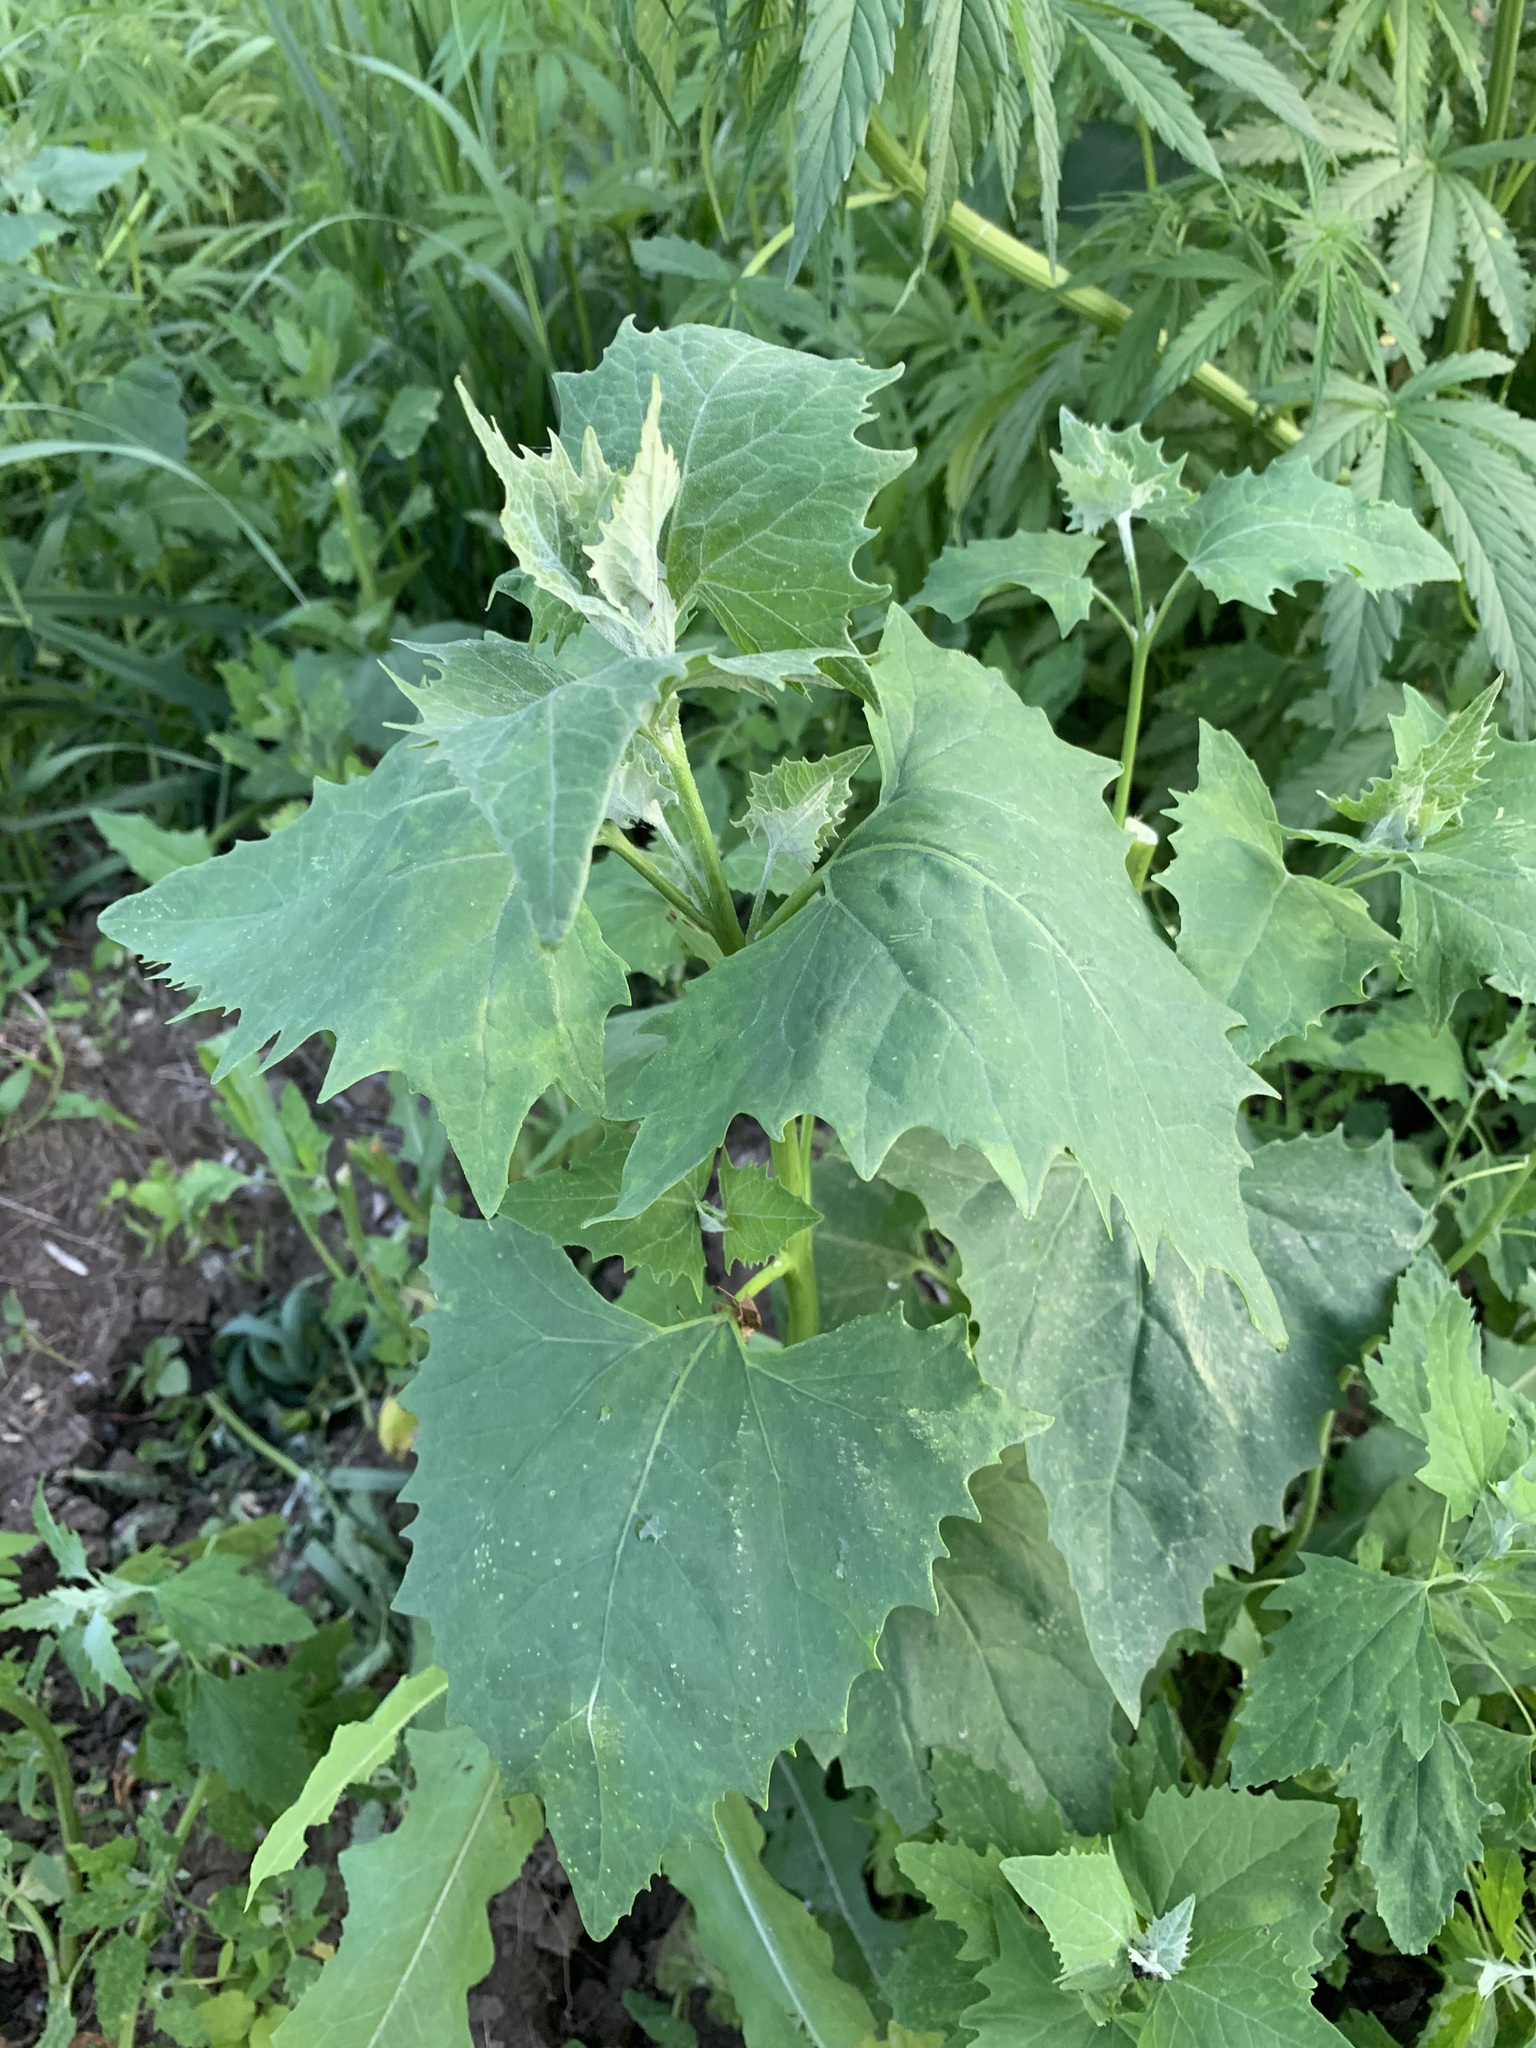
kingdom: Plantae
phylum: Tracheophyta
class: Magnoliopsida
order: Caryophyllales
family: Amaranthaceae
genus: Atriplex
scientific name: Atriplex sagittata
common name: Purple orache
